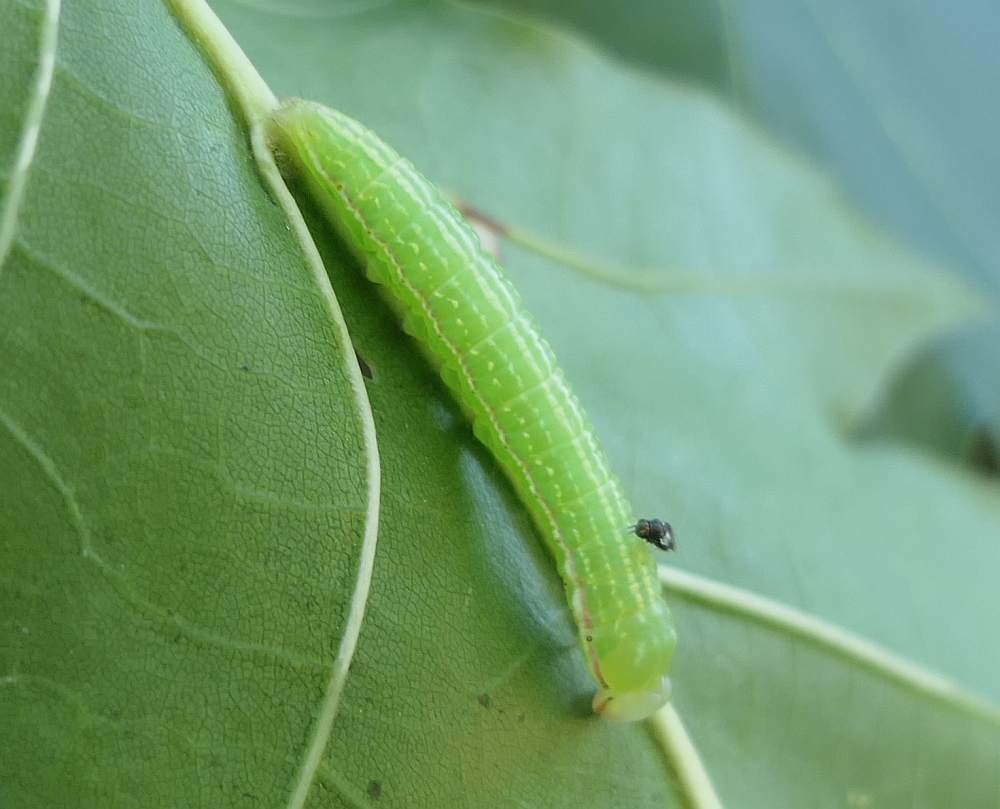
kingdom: Animalia
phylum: Arthropoda
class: Insecta
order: Lepidoptera
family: Notodontidae
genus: Peridea
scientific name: Peridea angulosa
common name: Angulose prominent
